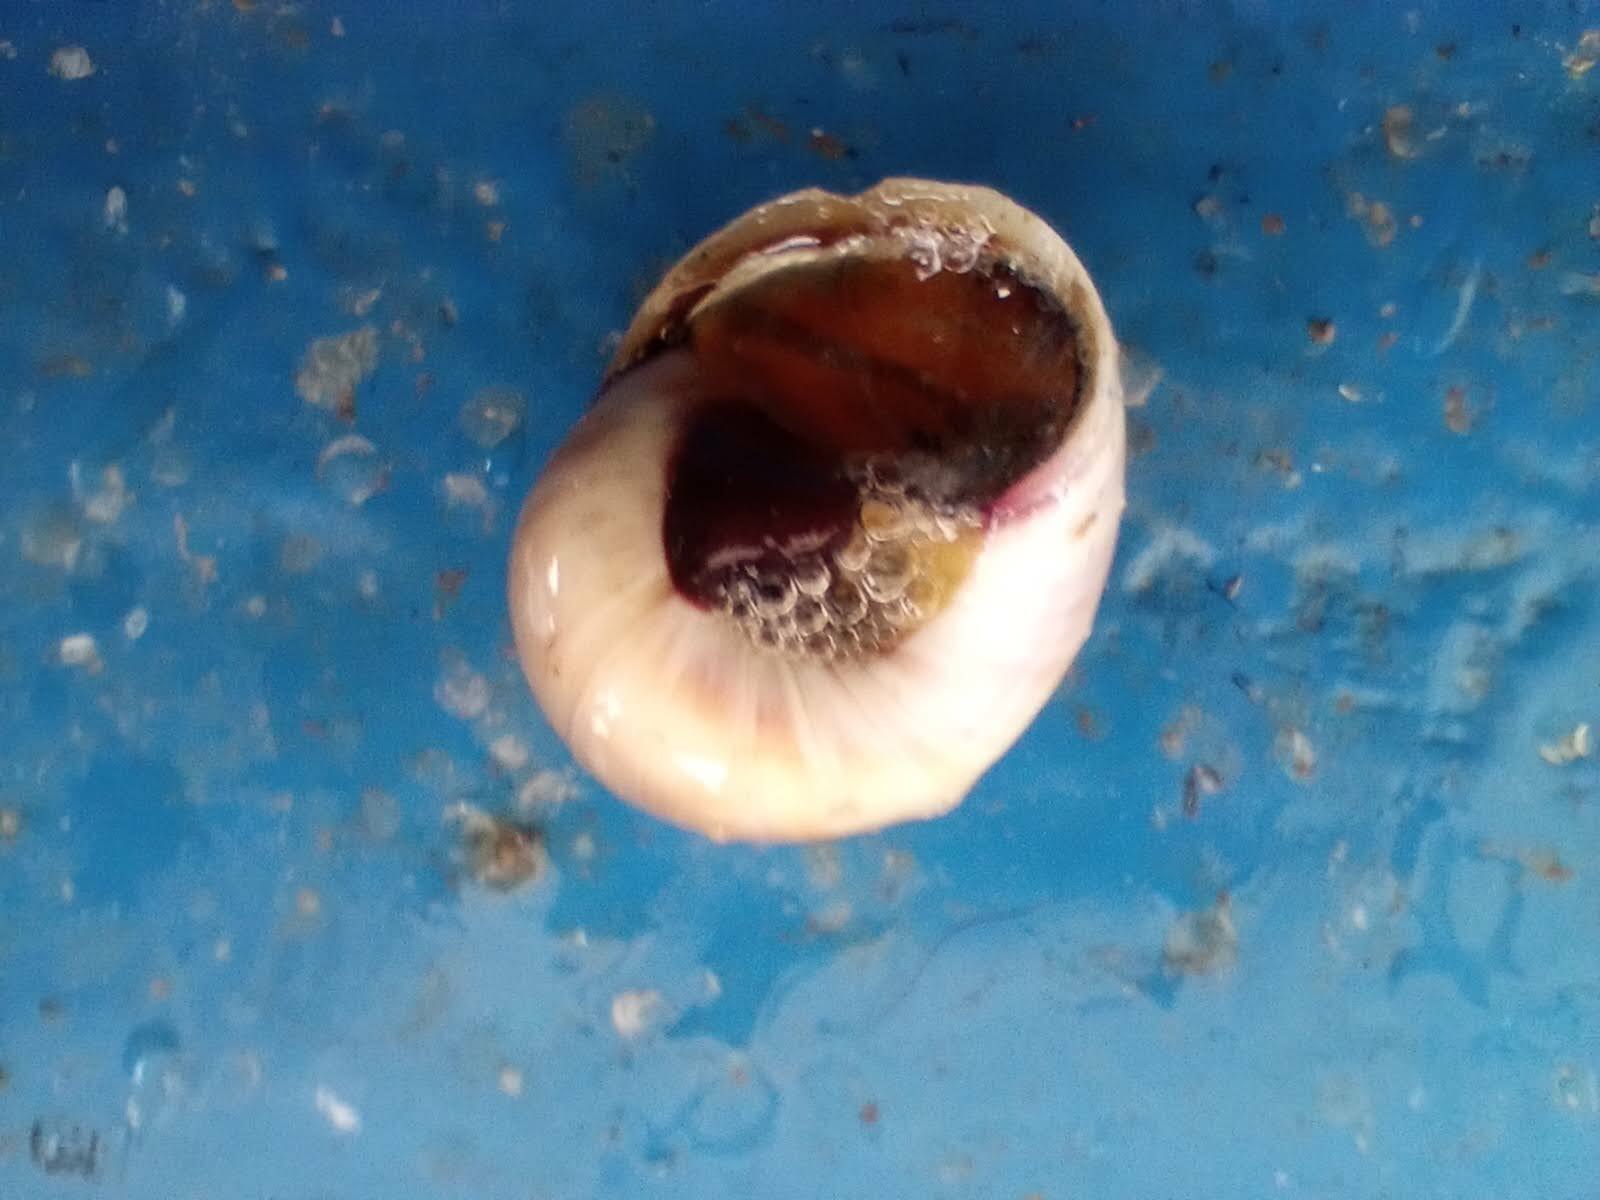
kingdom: Animalia
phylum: Mollusca
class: Gastropoda
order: Littorinimorpha
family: Naticidae
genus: Neverita
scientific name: Neverita delessertiana
